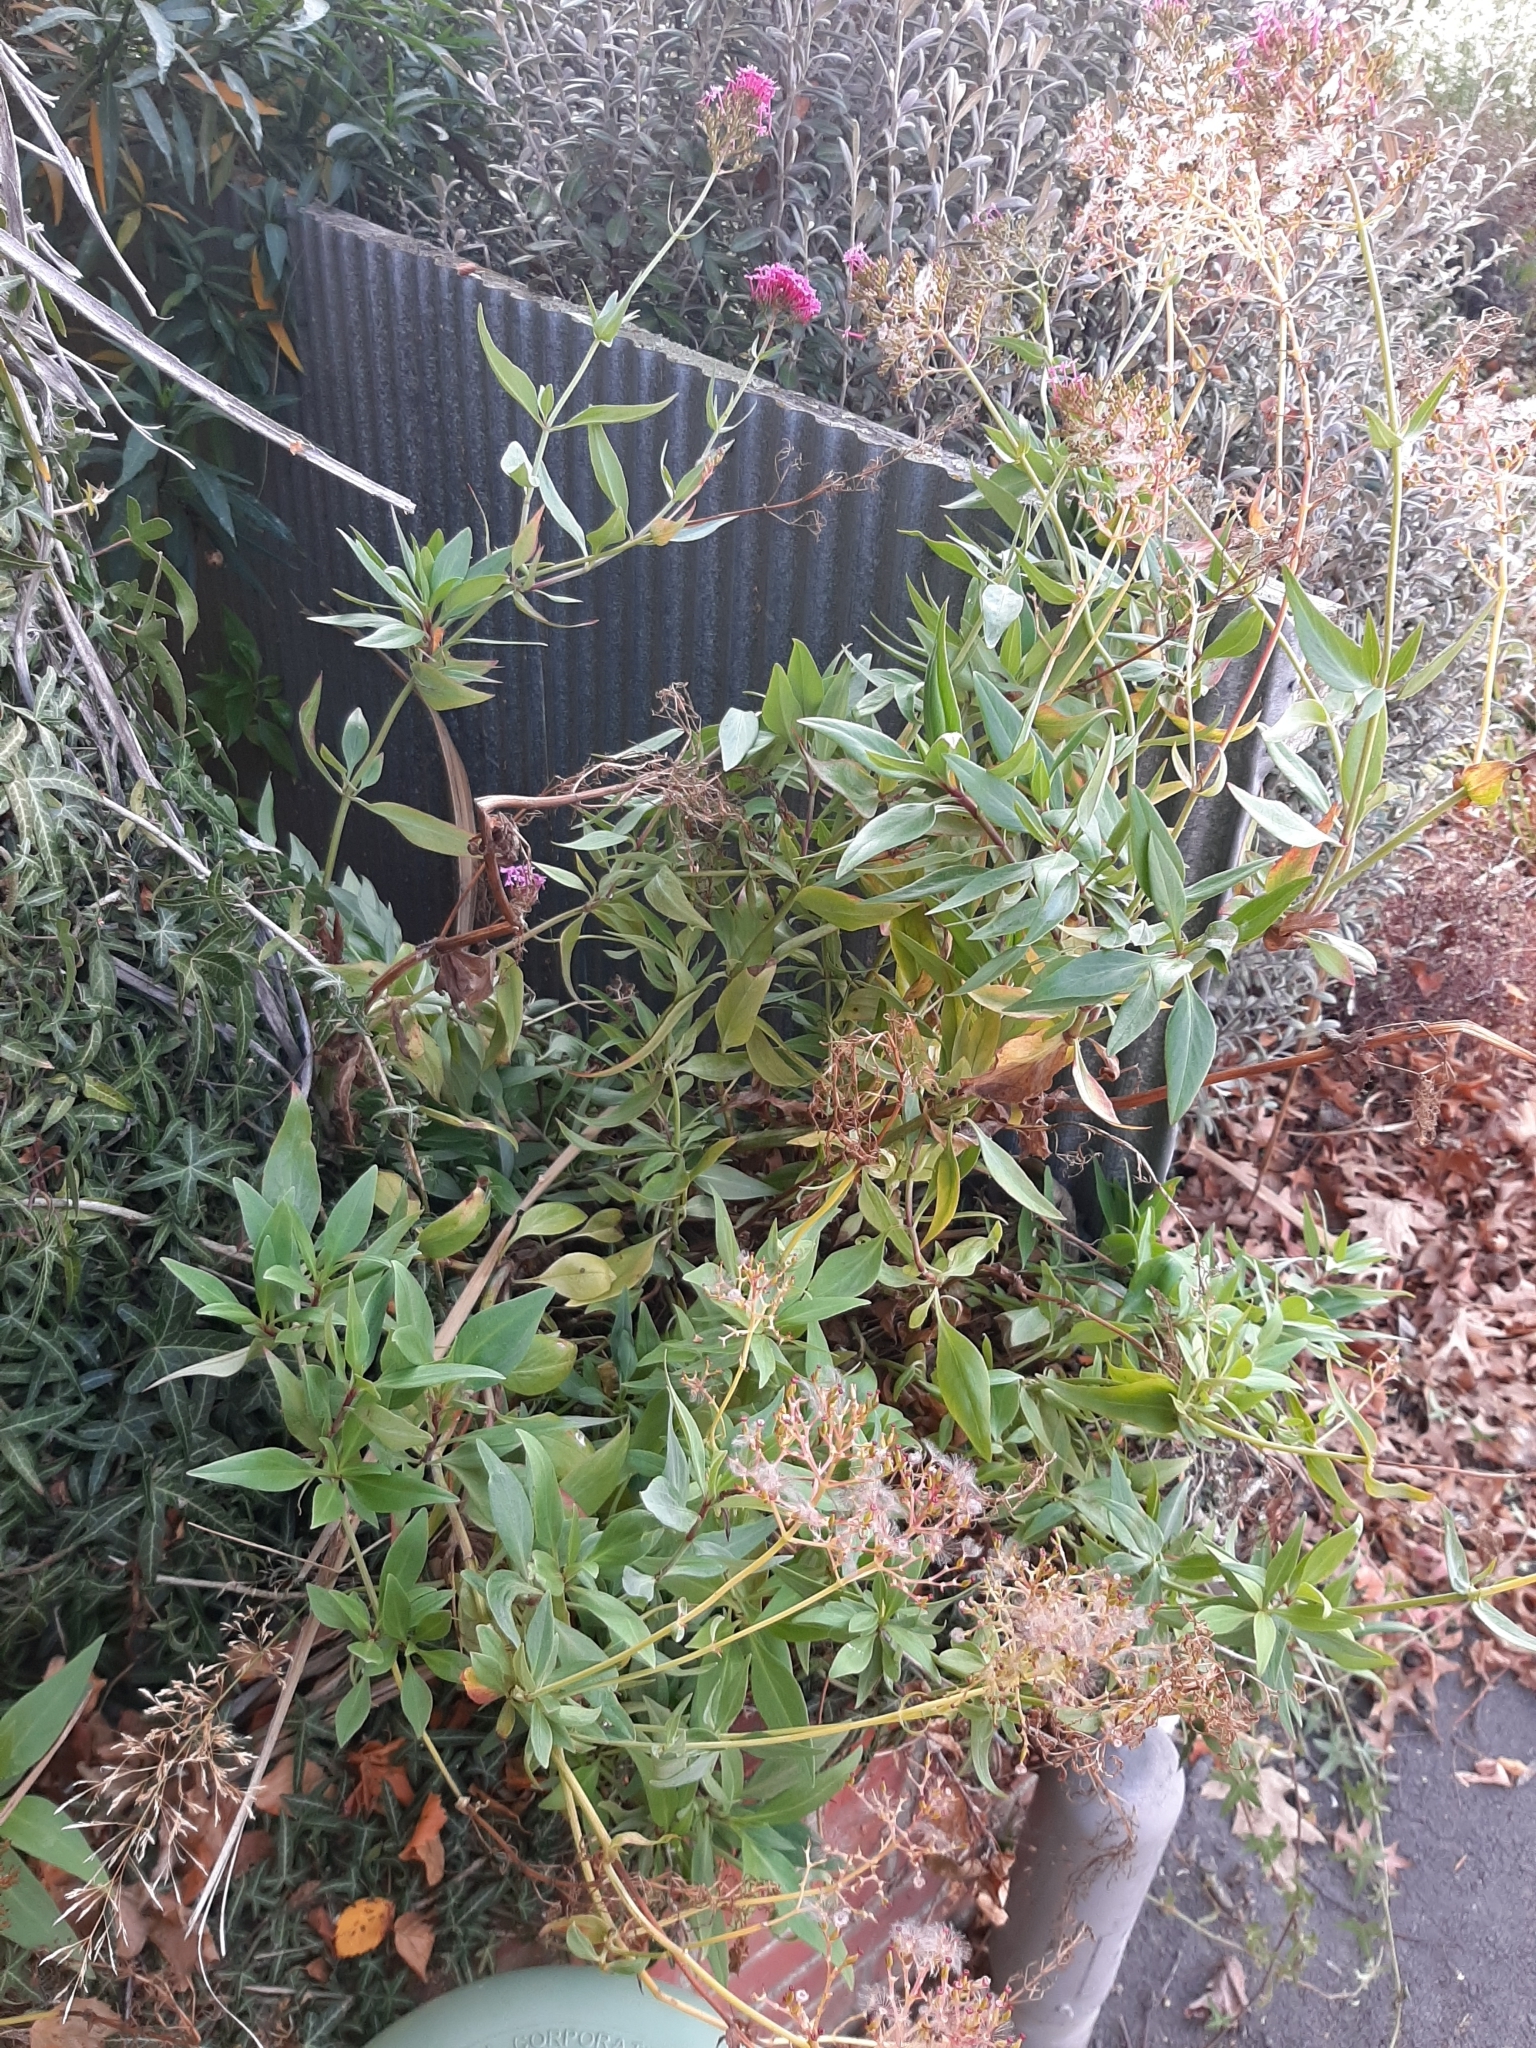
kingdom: Plantae
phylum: Tracheophyta
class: Magnoliopsida
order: Dipsacales
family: Caprifoliaceae
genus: Centranthus
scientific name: Centranthus ruber
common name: Red valerian
